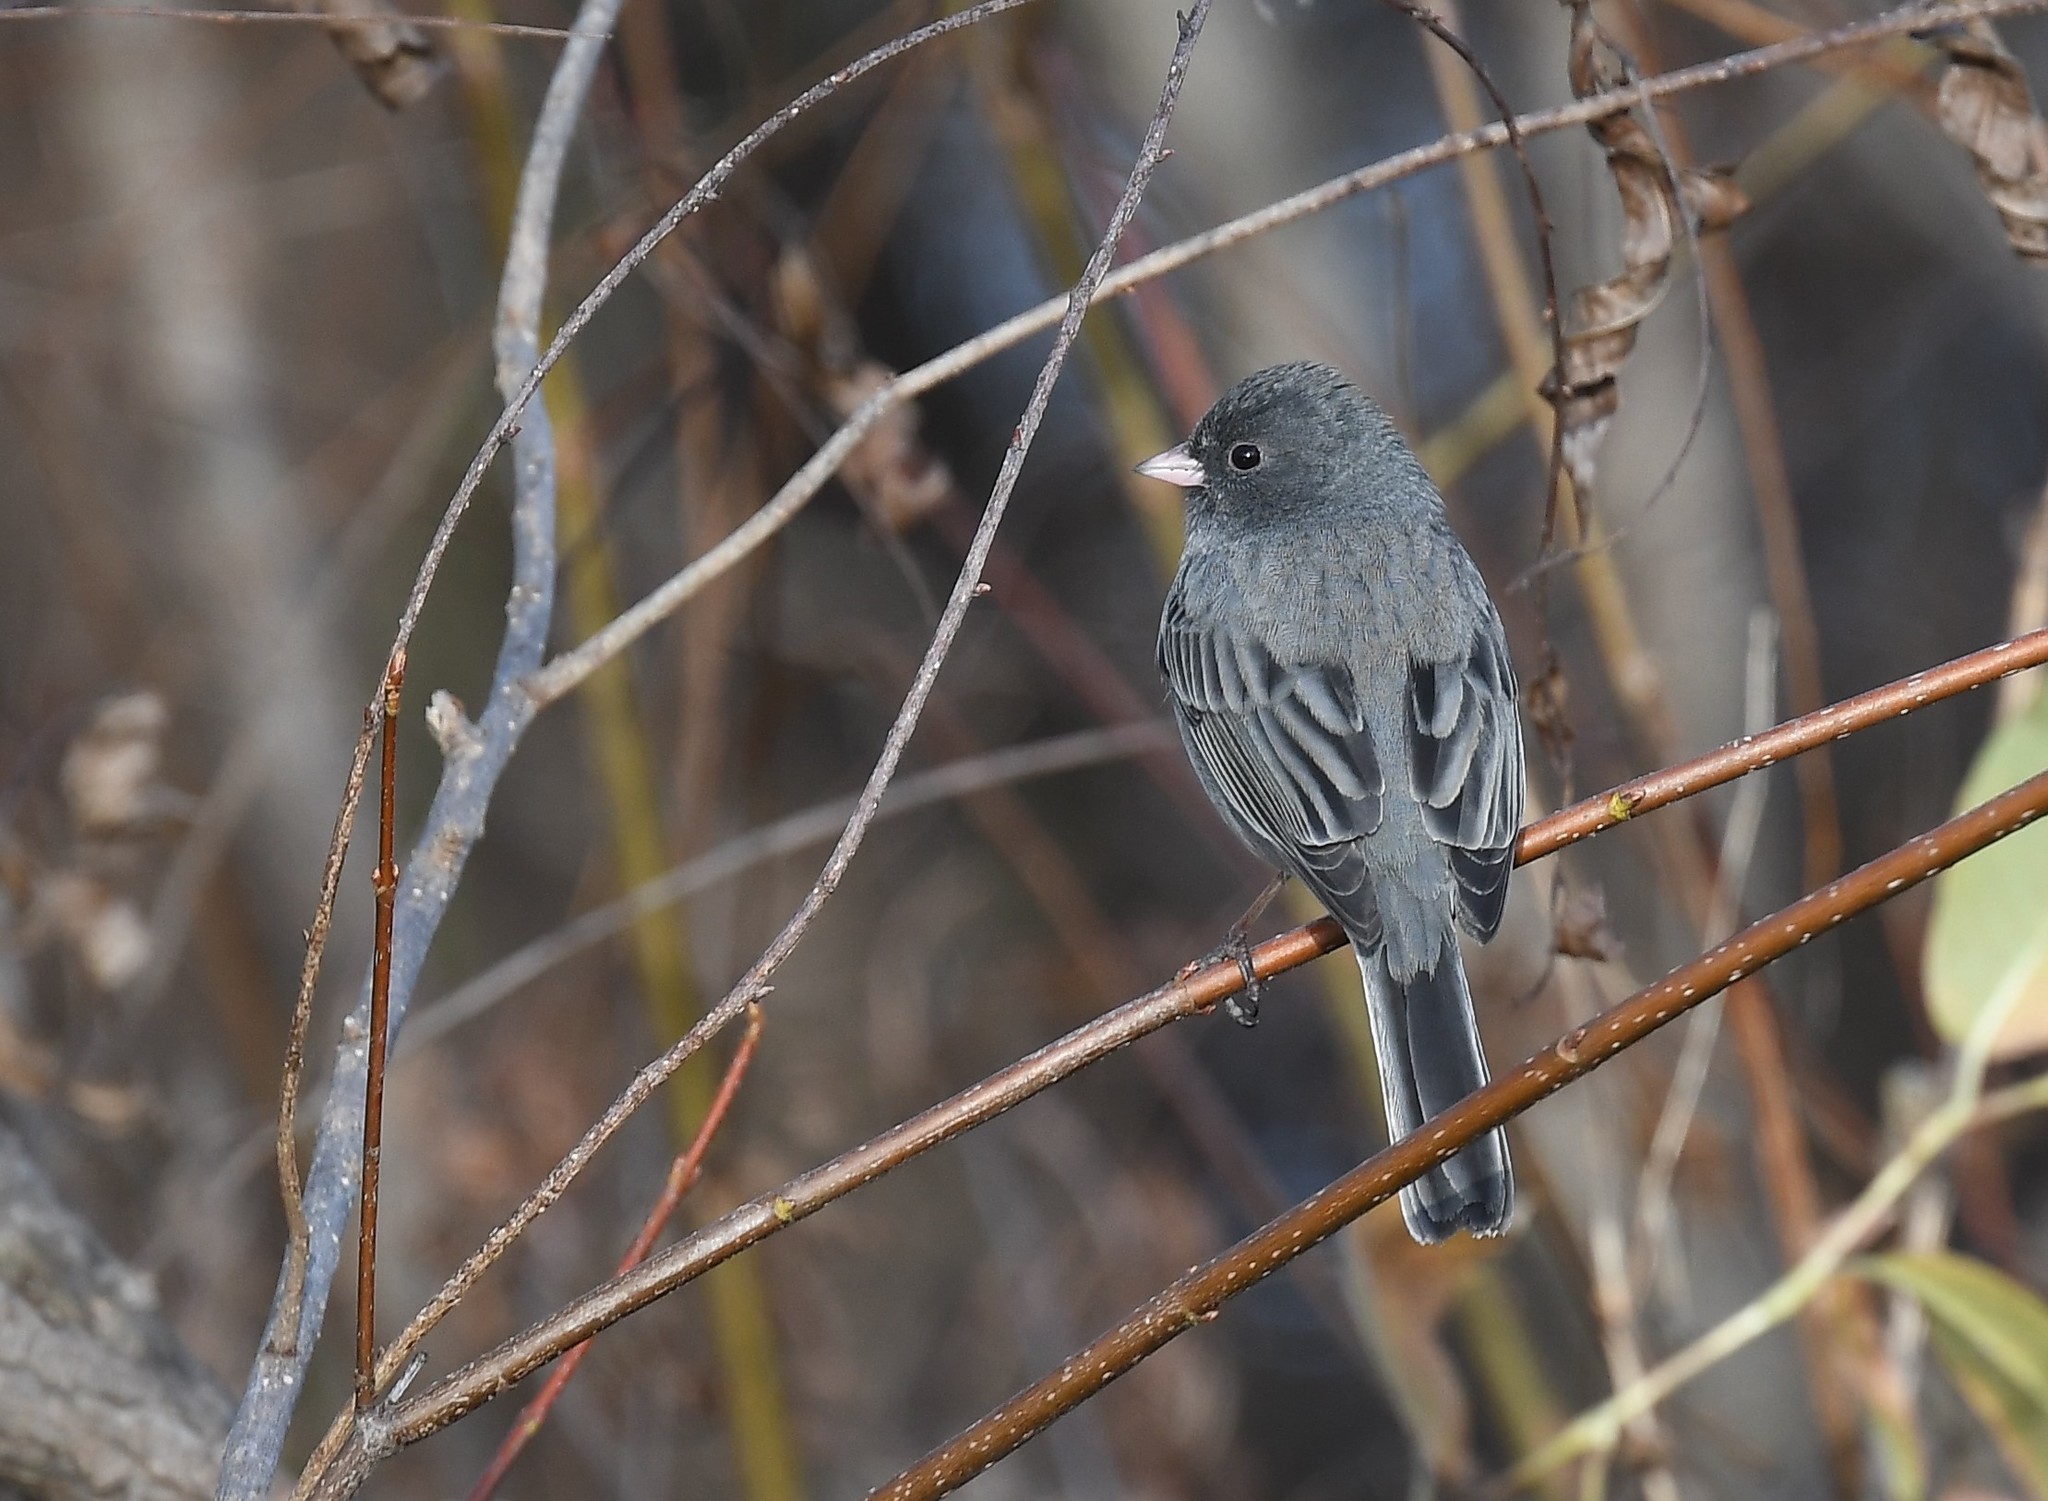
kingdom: Animalia
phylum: Chordata
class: Aves
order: Passeriformes
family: Passerellidae
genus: Junco
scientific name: Junco hyemalis
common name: Dark-eyed junco
